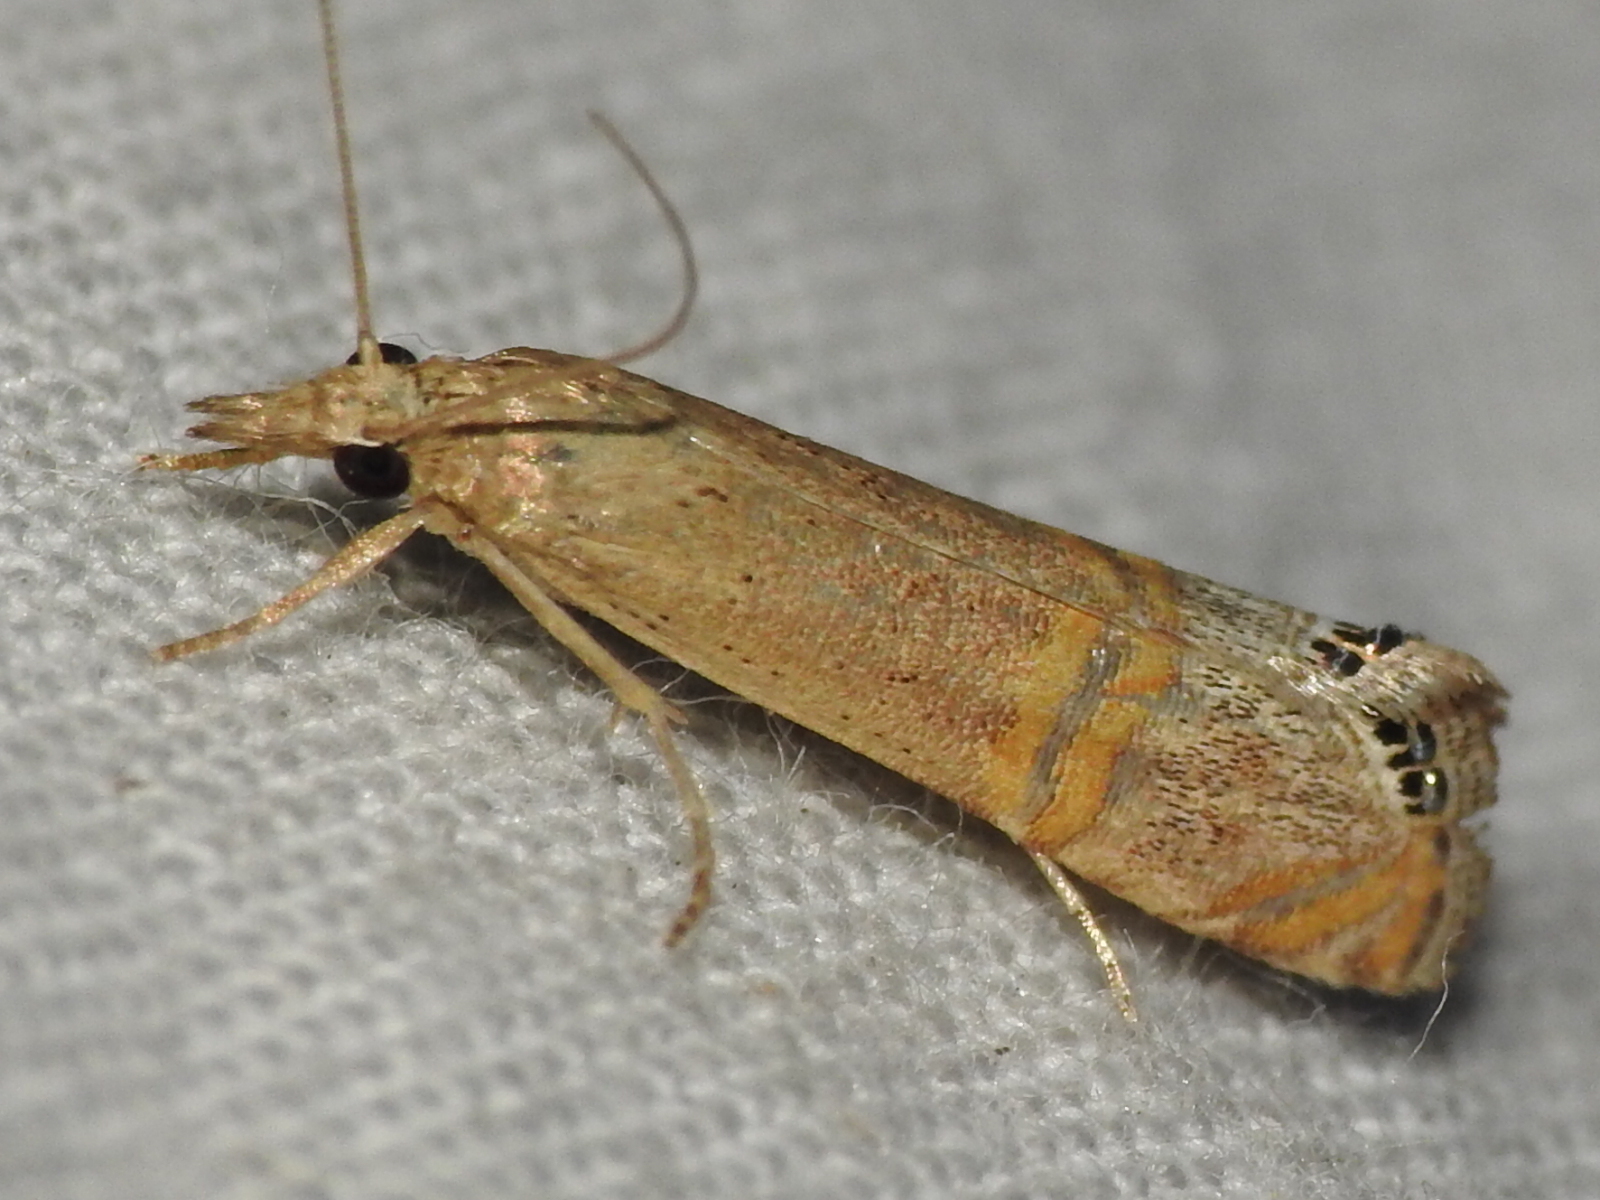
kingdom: Animalia
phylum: Arthropoda
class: Insecta
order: Lepidoptera
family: Crambidae
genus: Euchromius
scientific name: Euchromius ocellea
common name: Necklace veneer moth
